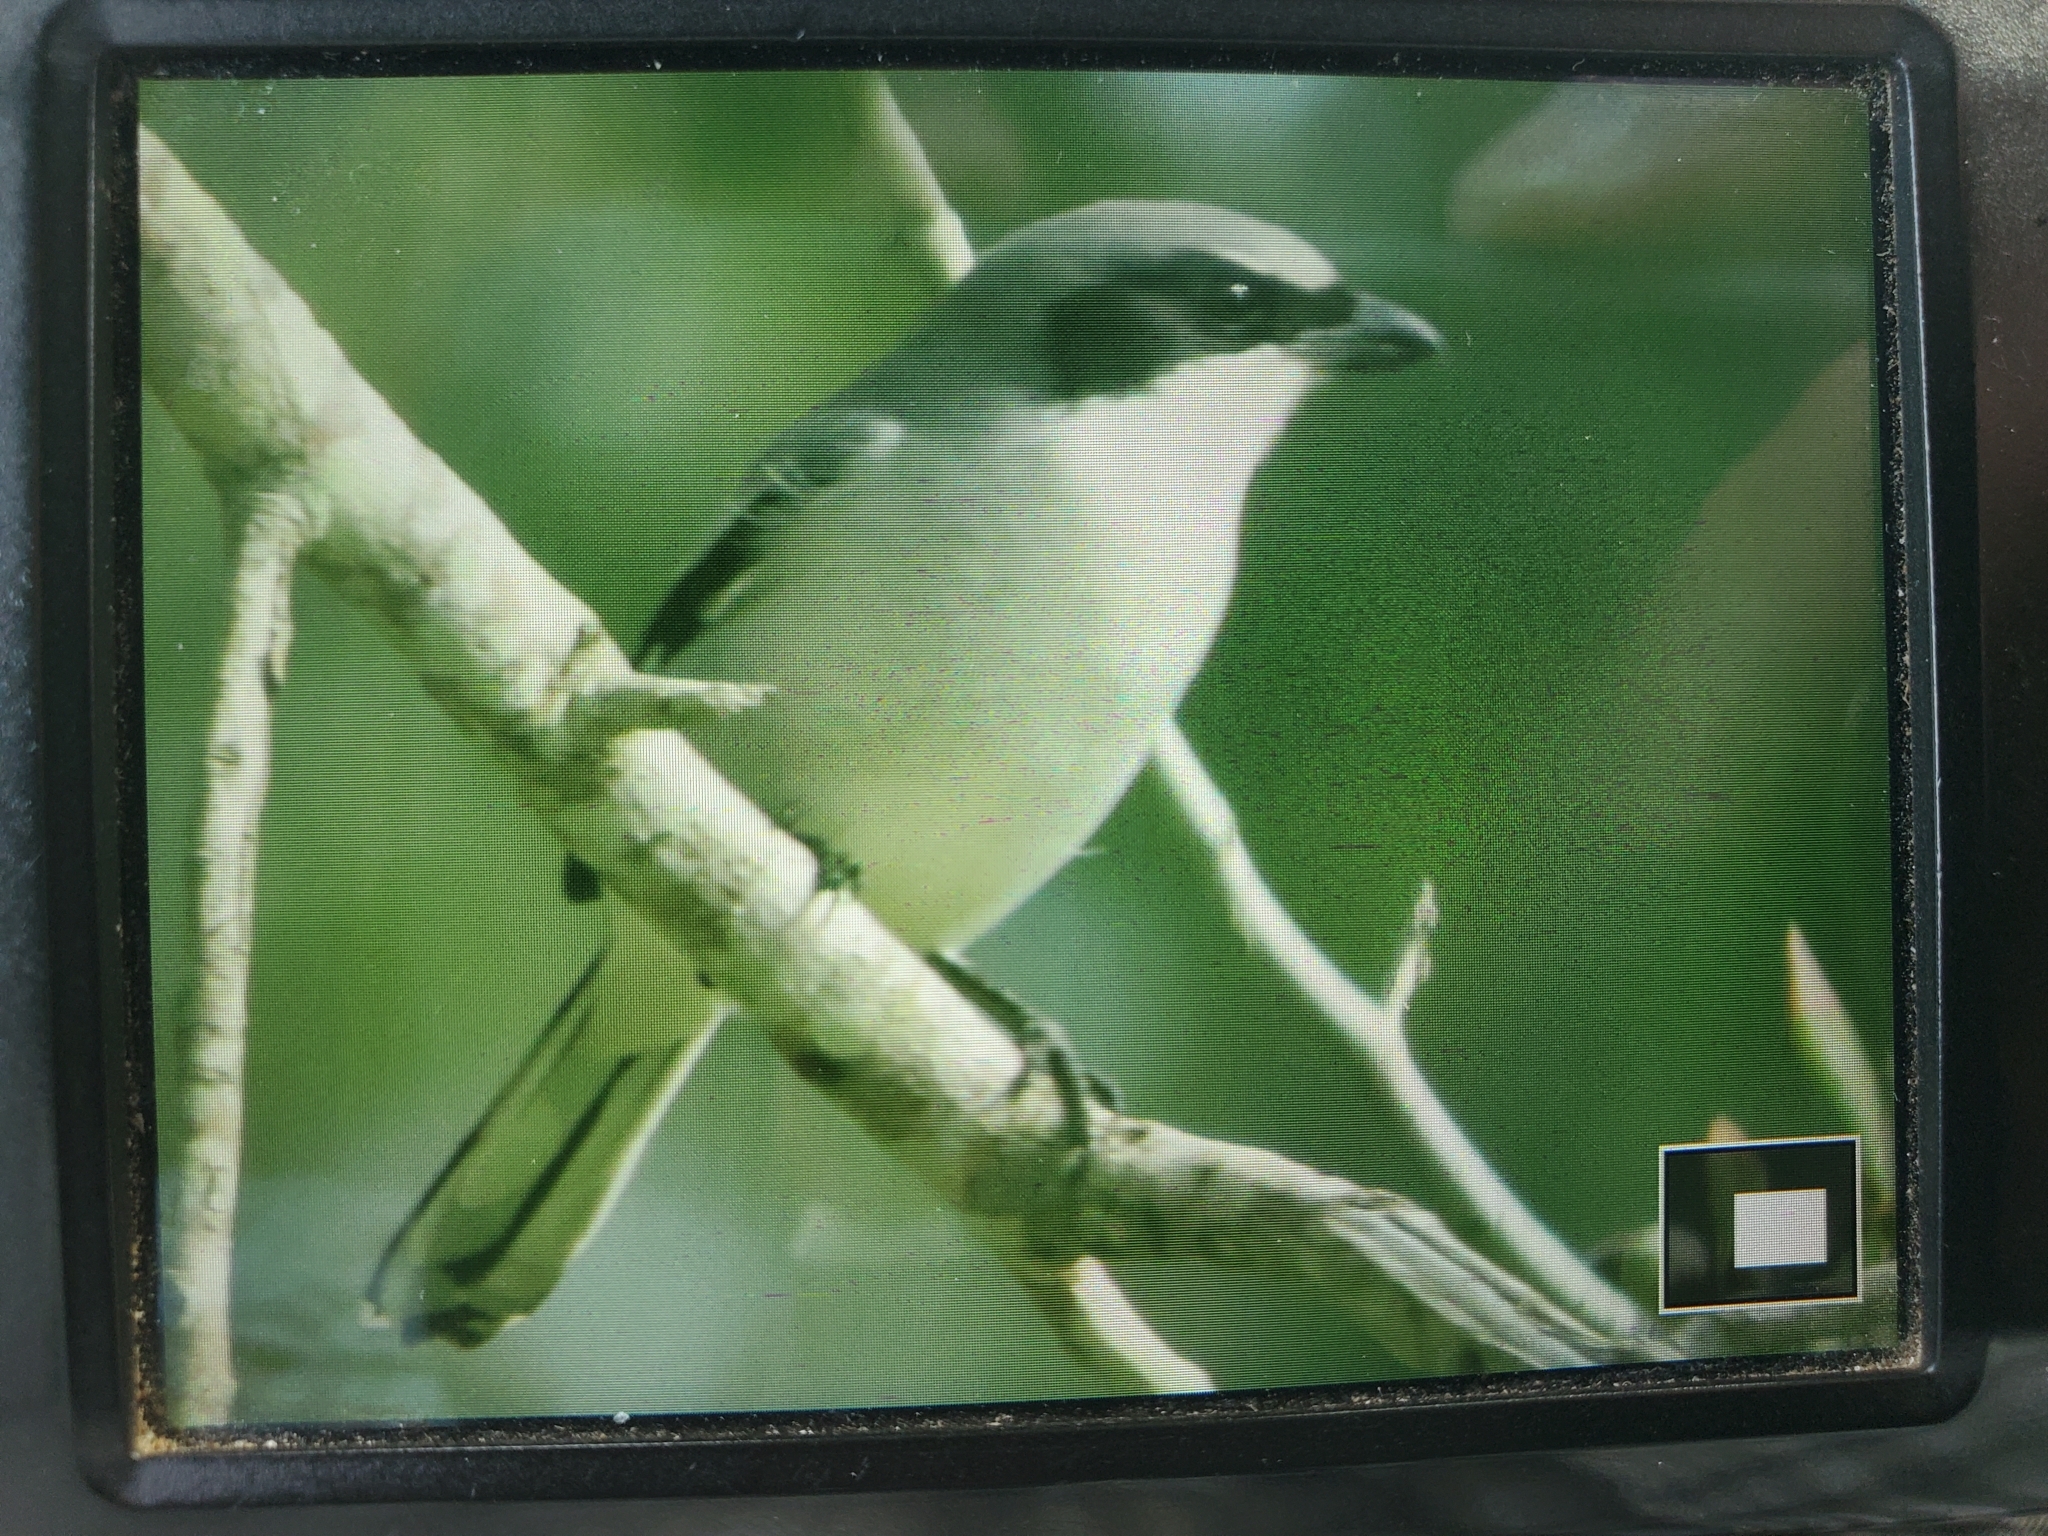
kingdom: Animalia
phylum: Chordata
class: Aves
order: Passeriformes
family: Laniidae
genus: Lanius
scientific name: Lanius ludovicianus
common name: Loggerhead shrike
